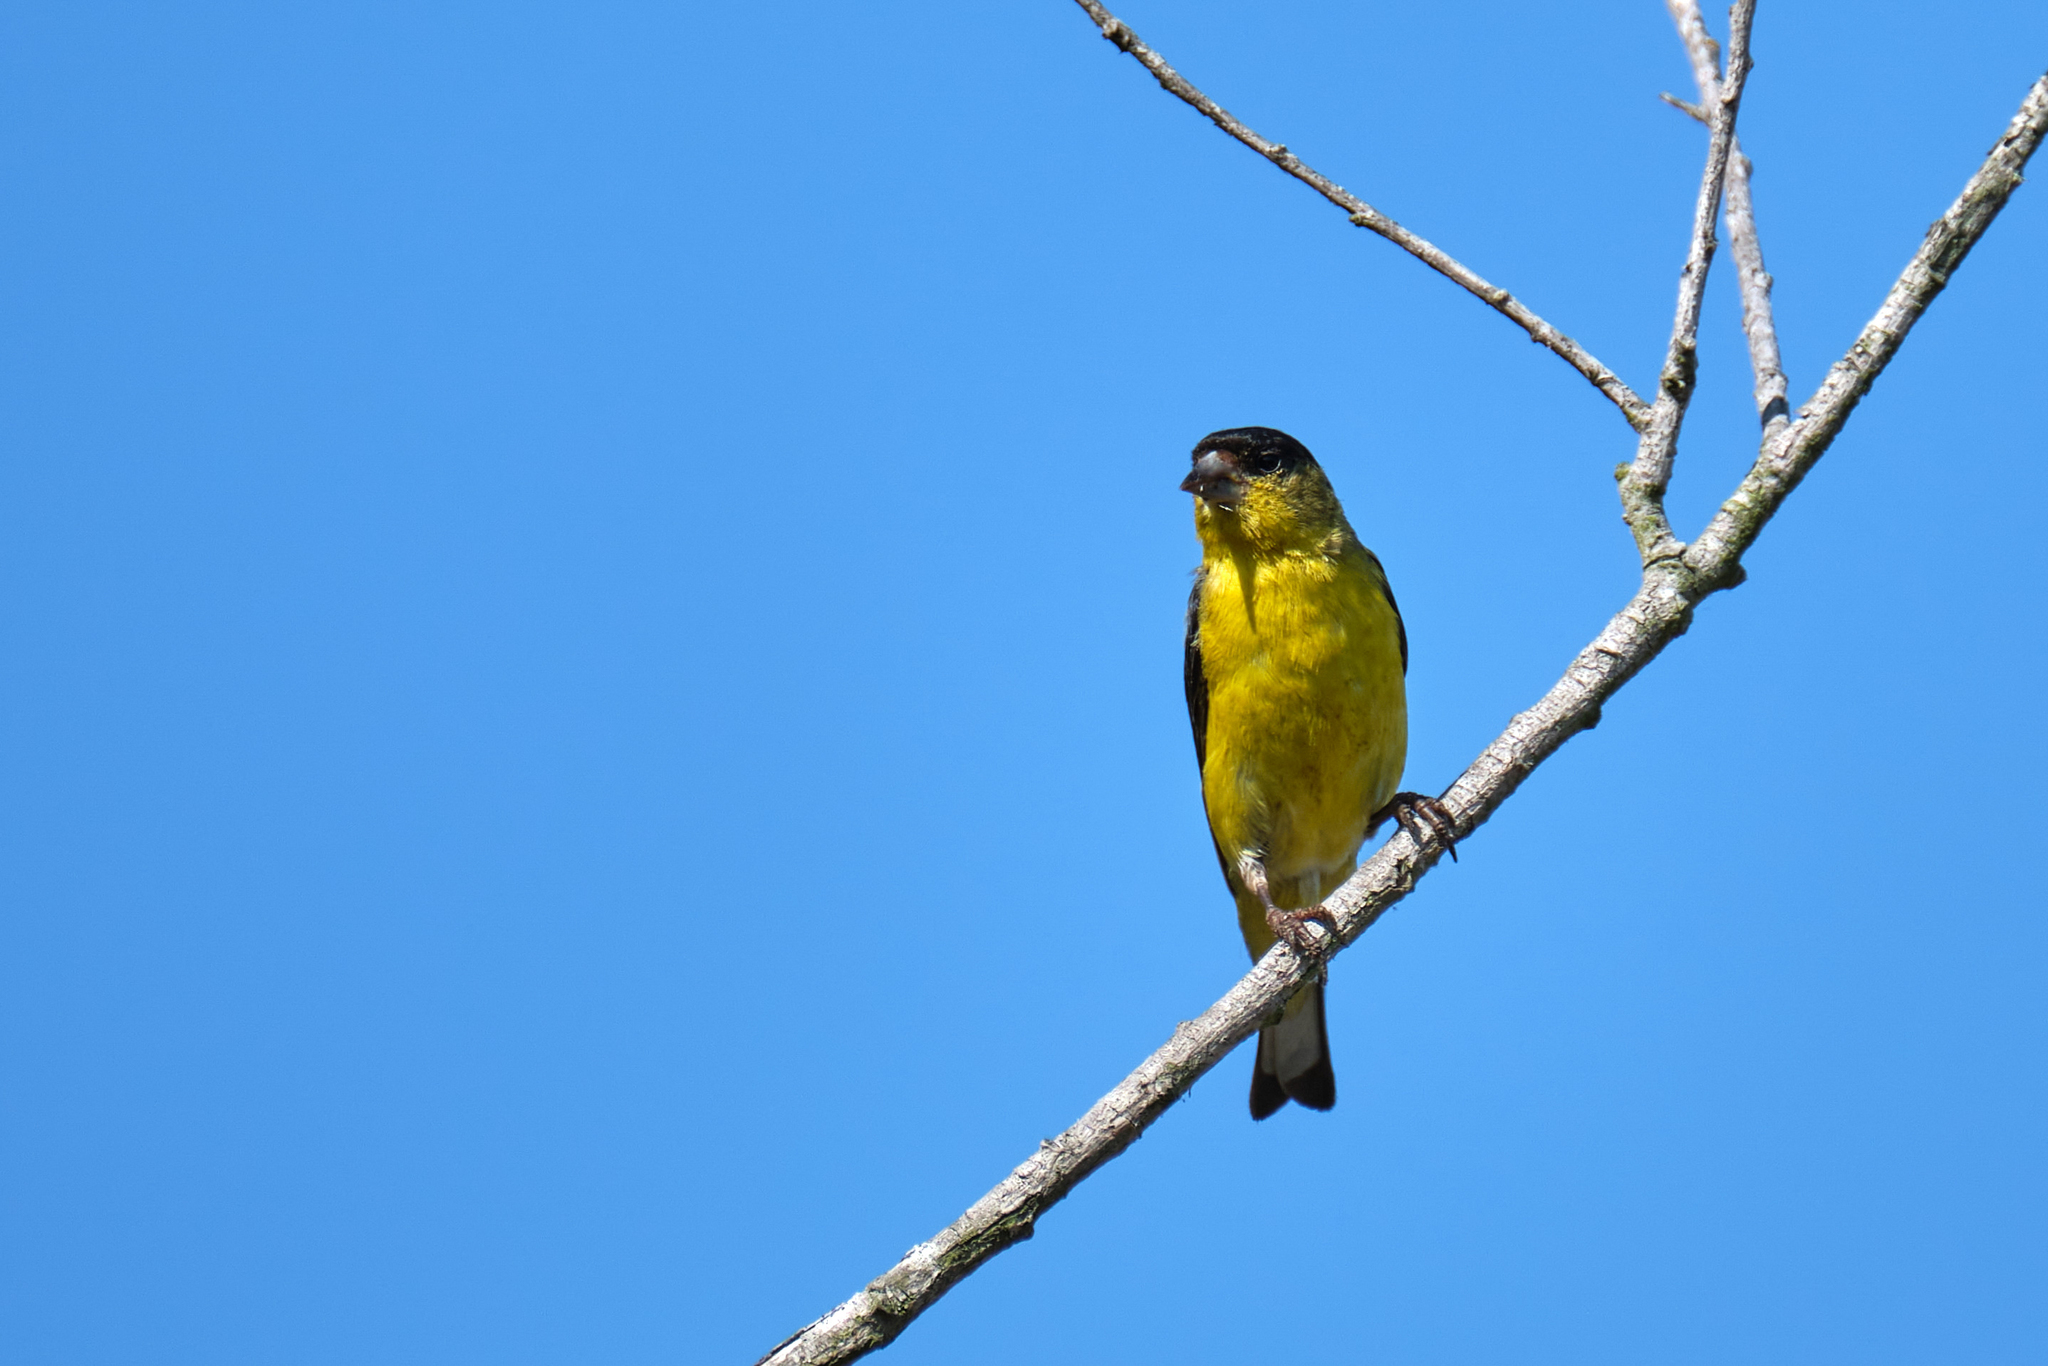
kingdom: Animalia
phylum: Chordata
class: Aves
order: Passeriformes
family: Fringillidae
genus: Spinus
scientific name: Spinus psaltria
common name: Lesser goldfinch
